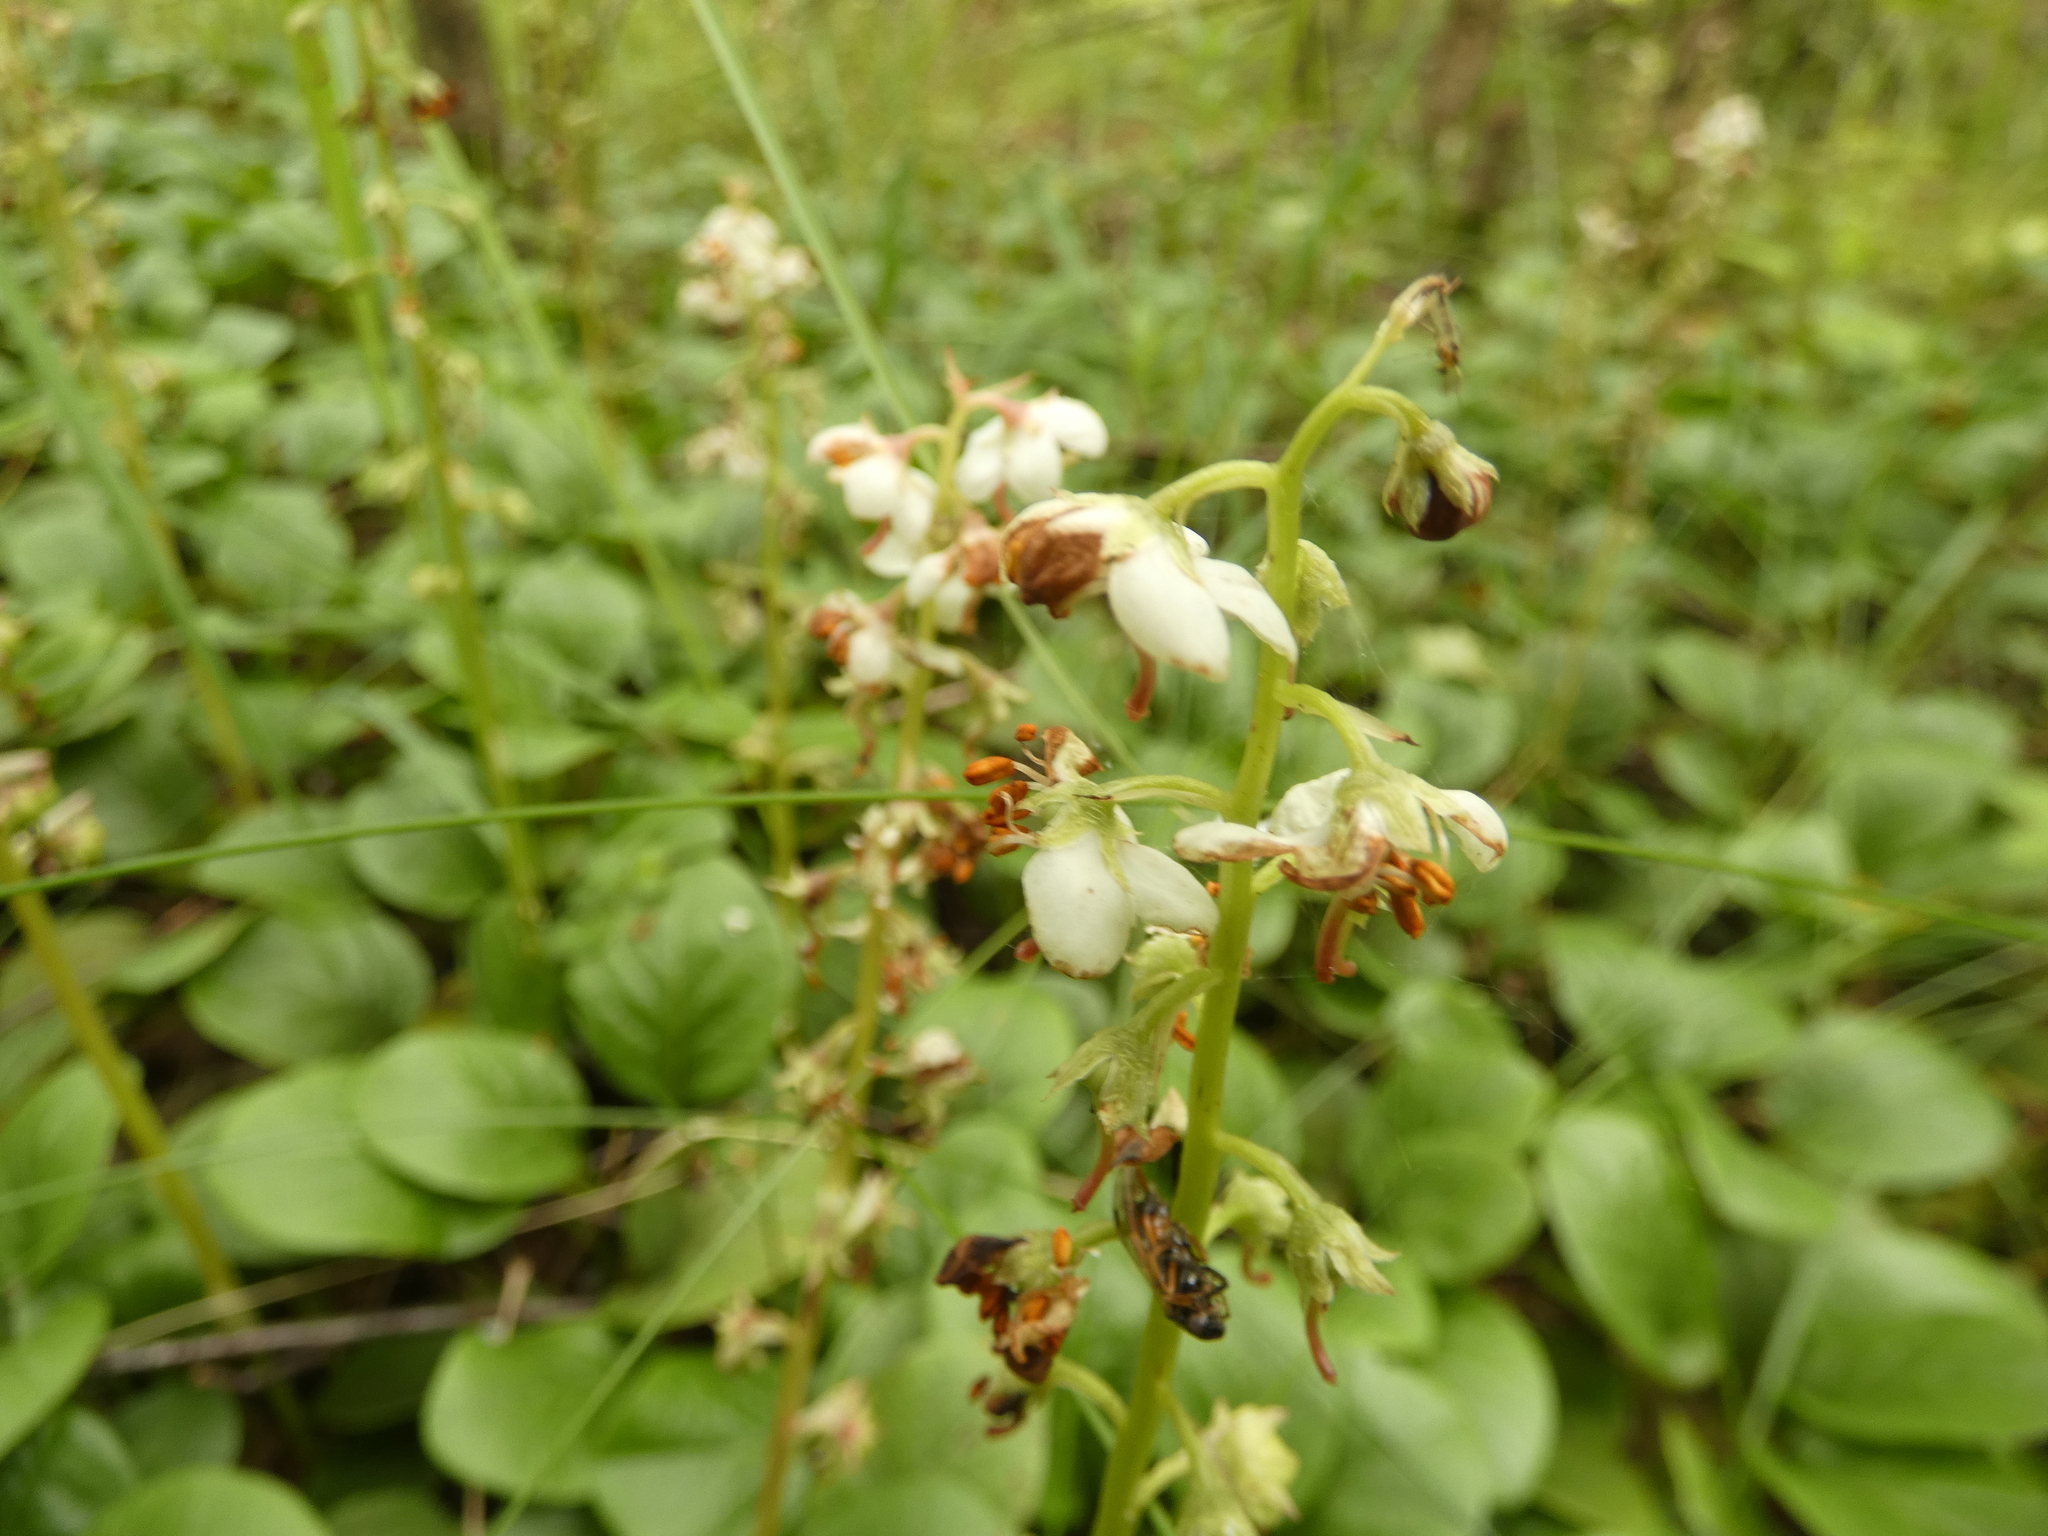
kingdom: Plantae
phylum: Tracheophyta
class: Magnoliopsida
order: Ericales
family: Ericaceae
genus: Pyrola
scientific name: Pyrola rotundifolia
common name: Round-leaved wintergreen
